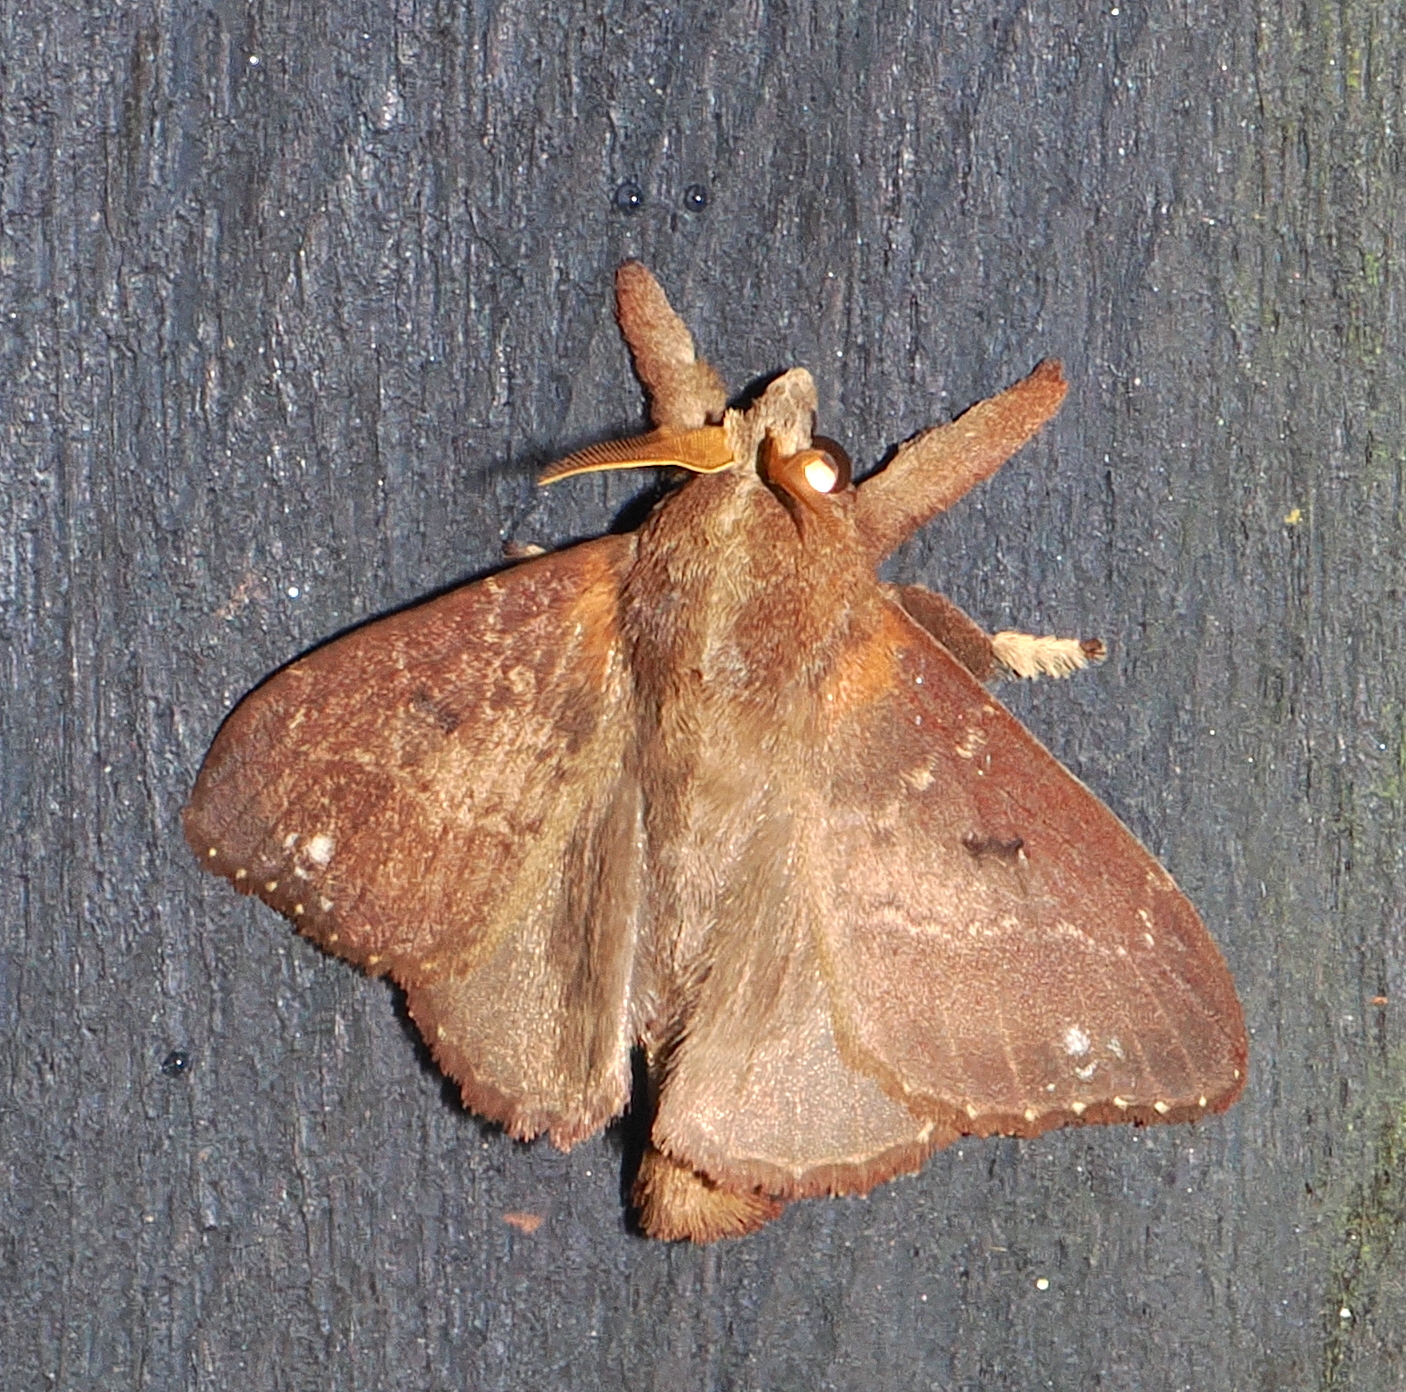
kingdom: Animalia
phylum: Arthropoda
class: Insecta
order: Lepidoptera
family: Lasiocampidae
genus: Euglyphis
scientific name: Euglyphis definita
